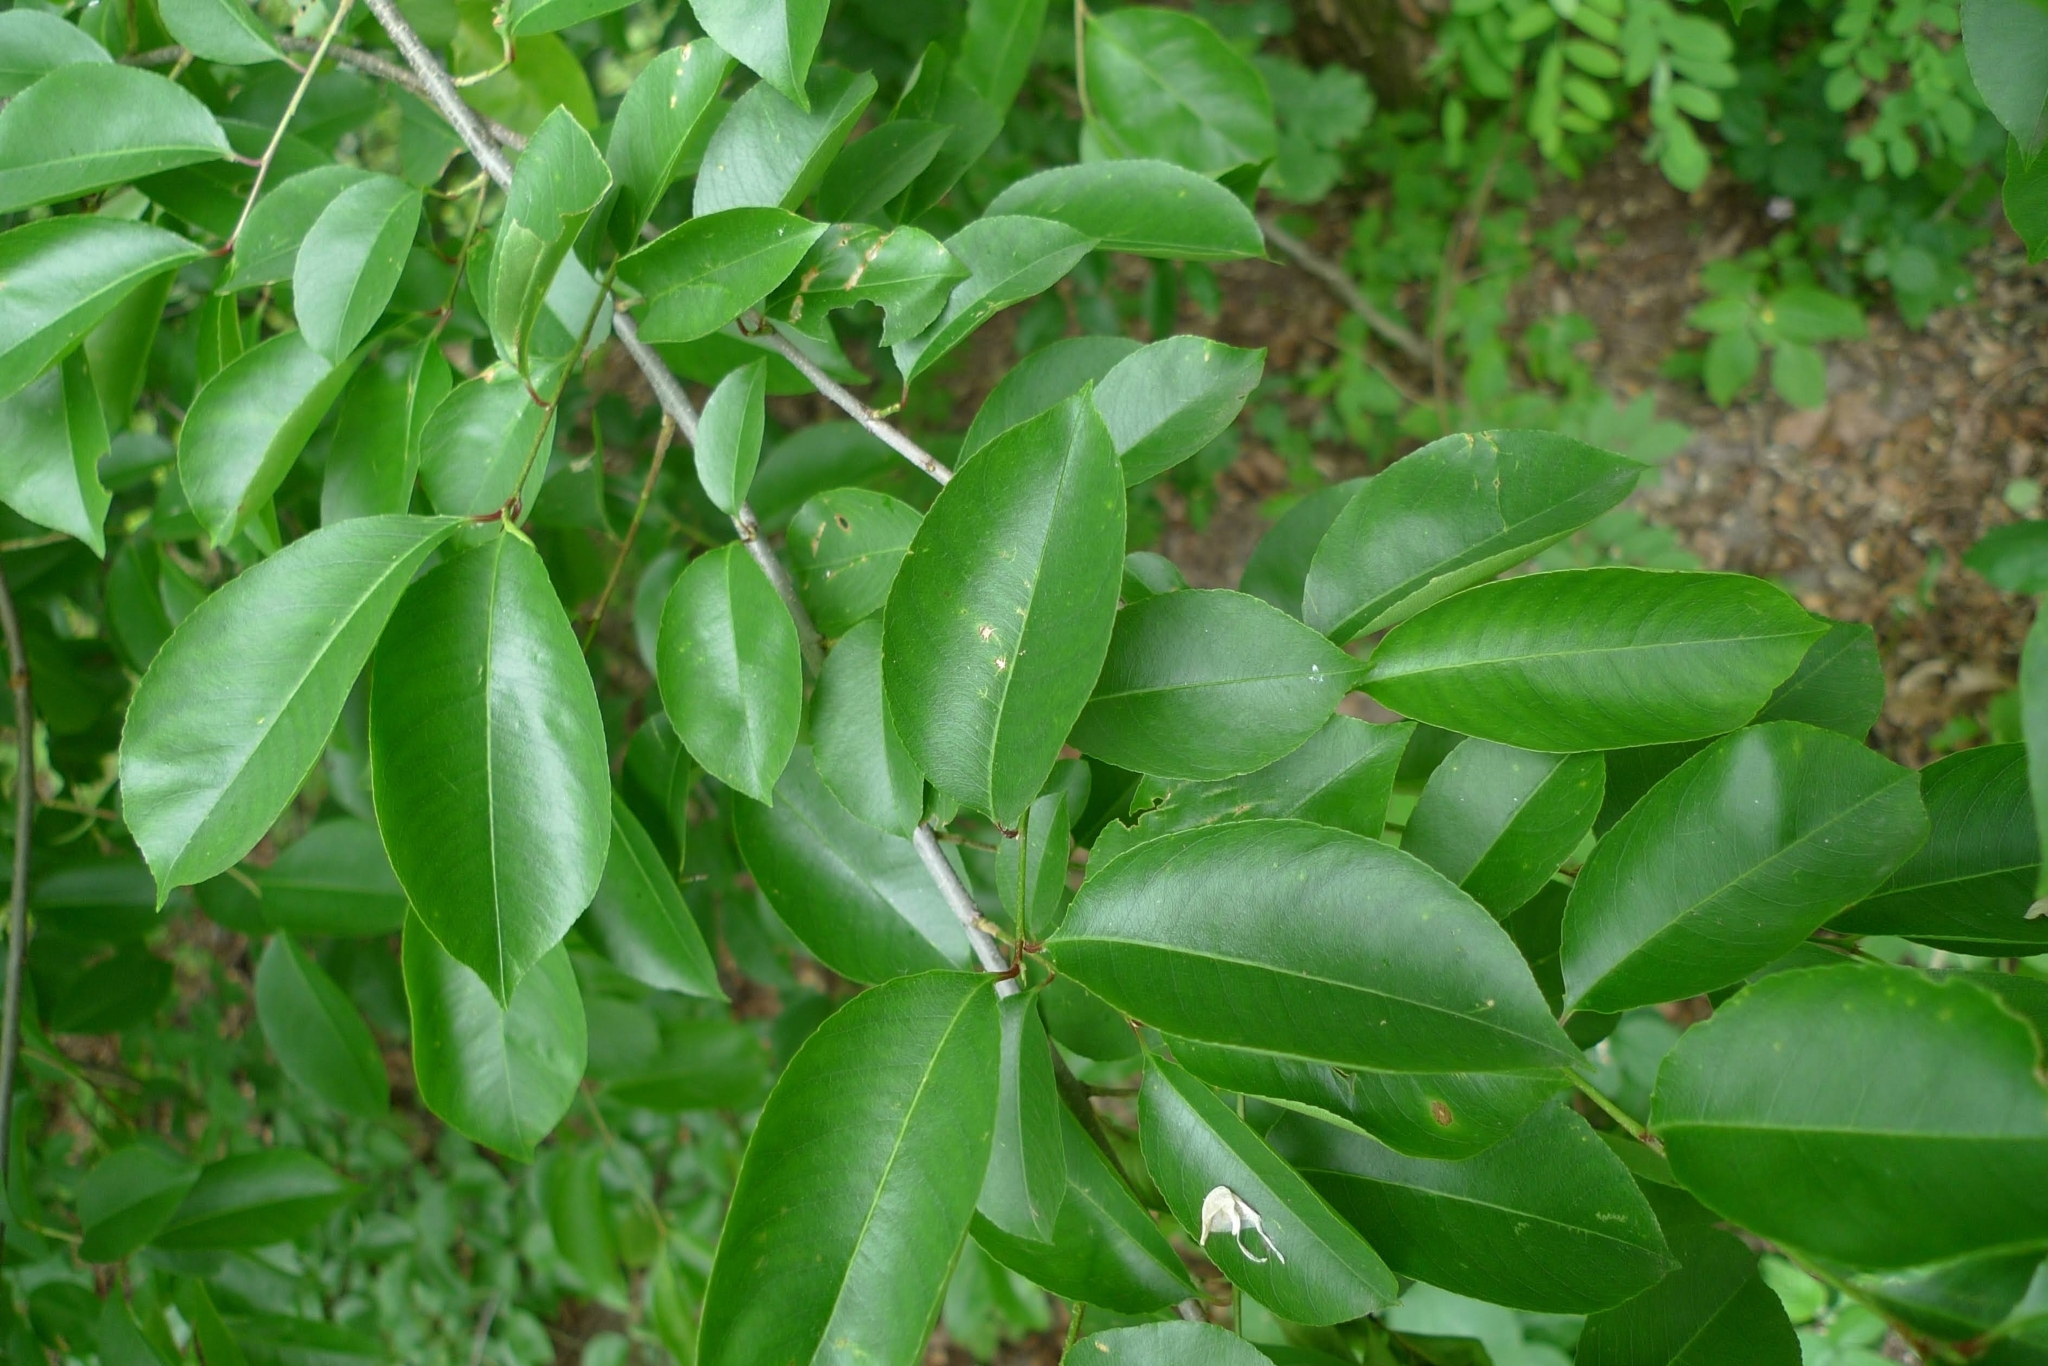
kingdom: Plantae
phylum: Tracheophyta
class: Magnoliopsida
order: Rosales
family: Rosaceae
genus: Prunus
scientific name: Prunus serotina
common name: Black cherry
